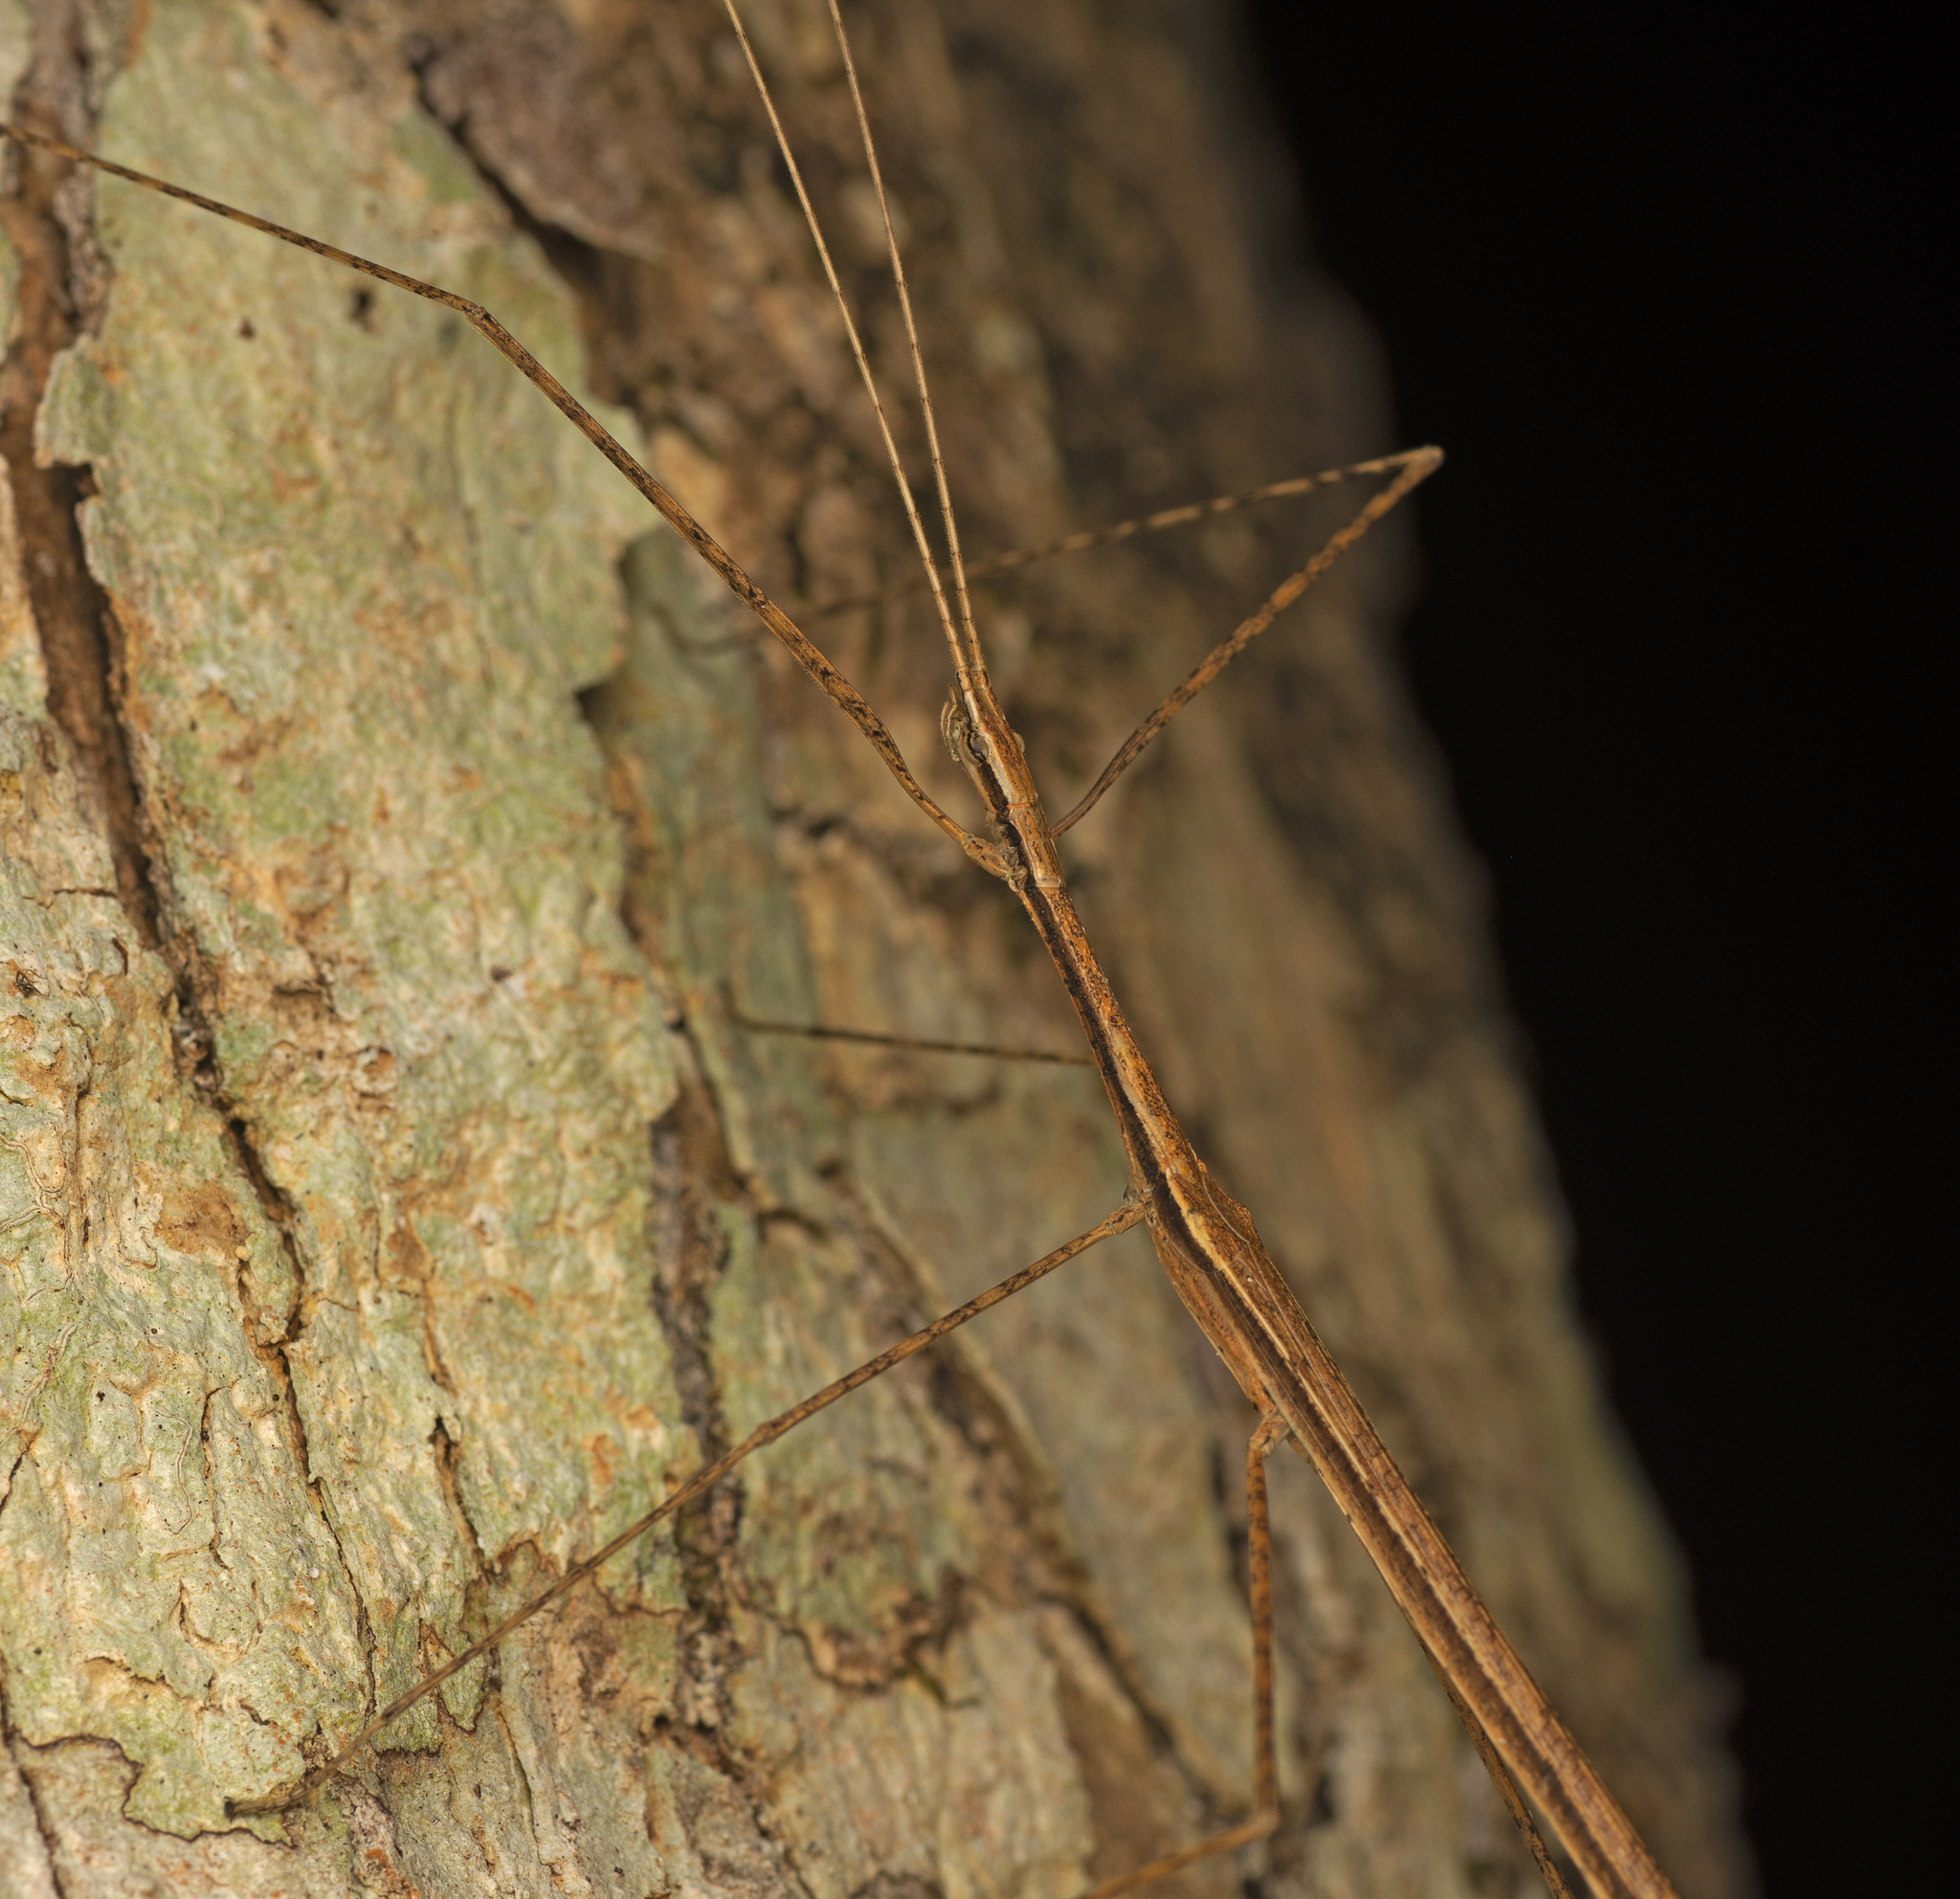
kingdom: Animalia
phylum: Arthropoda
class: Insecta
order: Phasmida
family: Lonchodidae
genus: Sipyloidea
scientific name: Sipyloidea larryi
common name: Hurricane larry stick-insect
